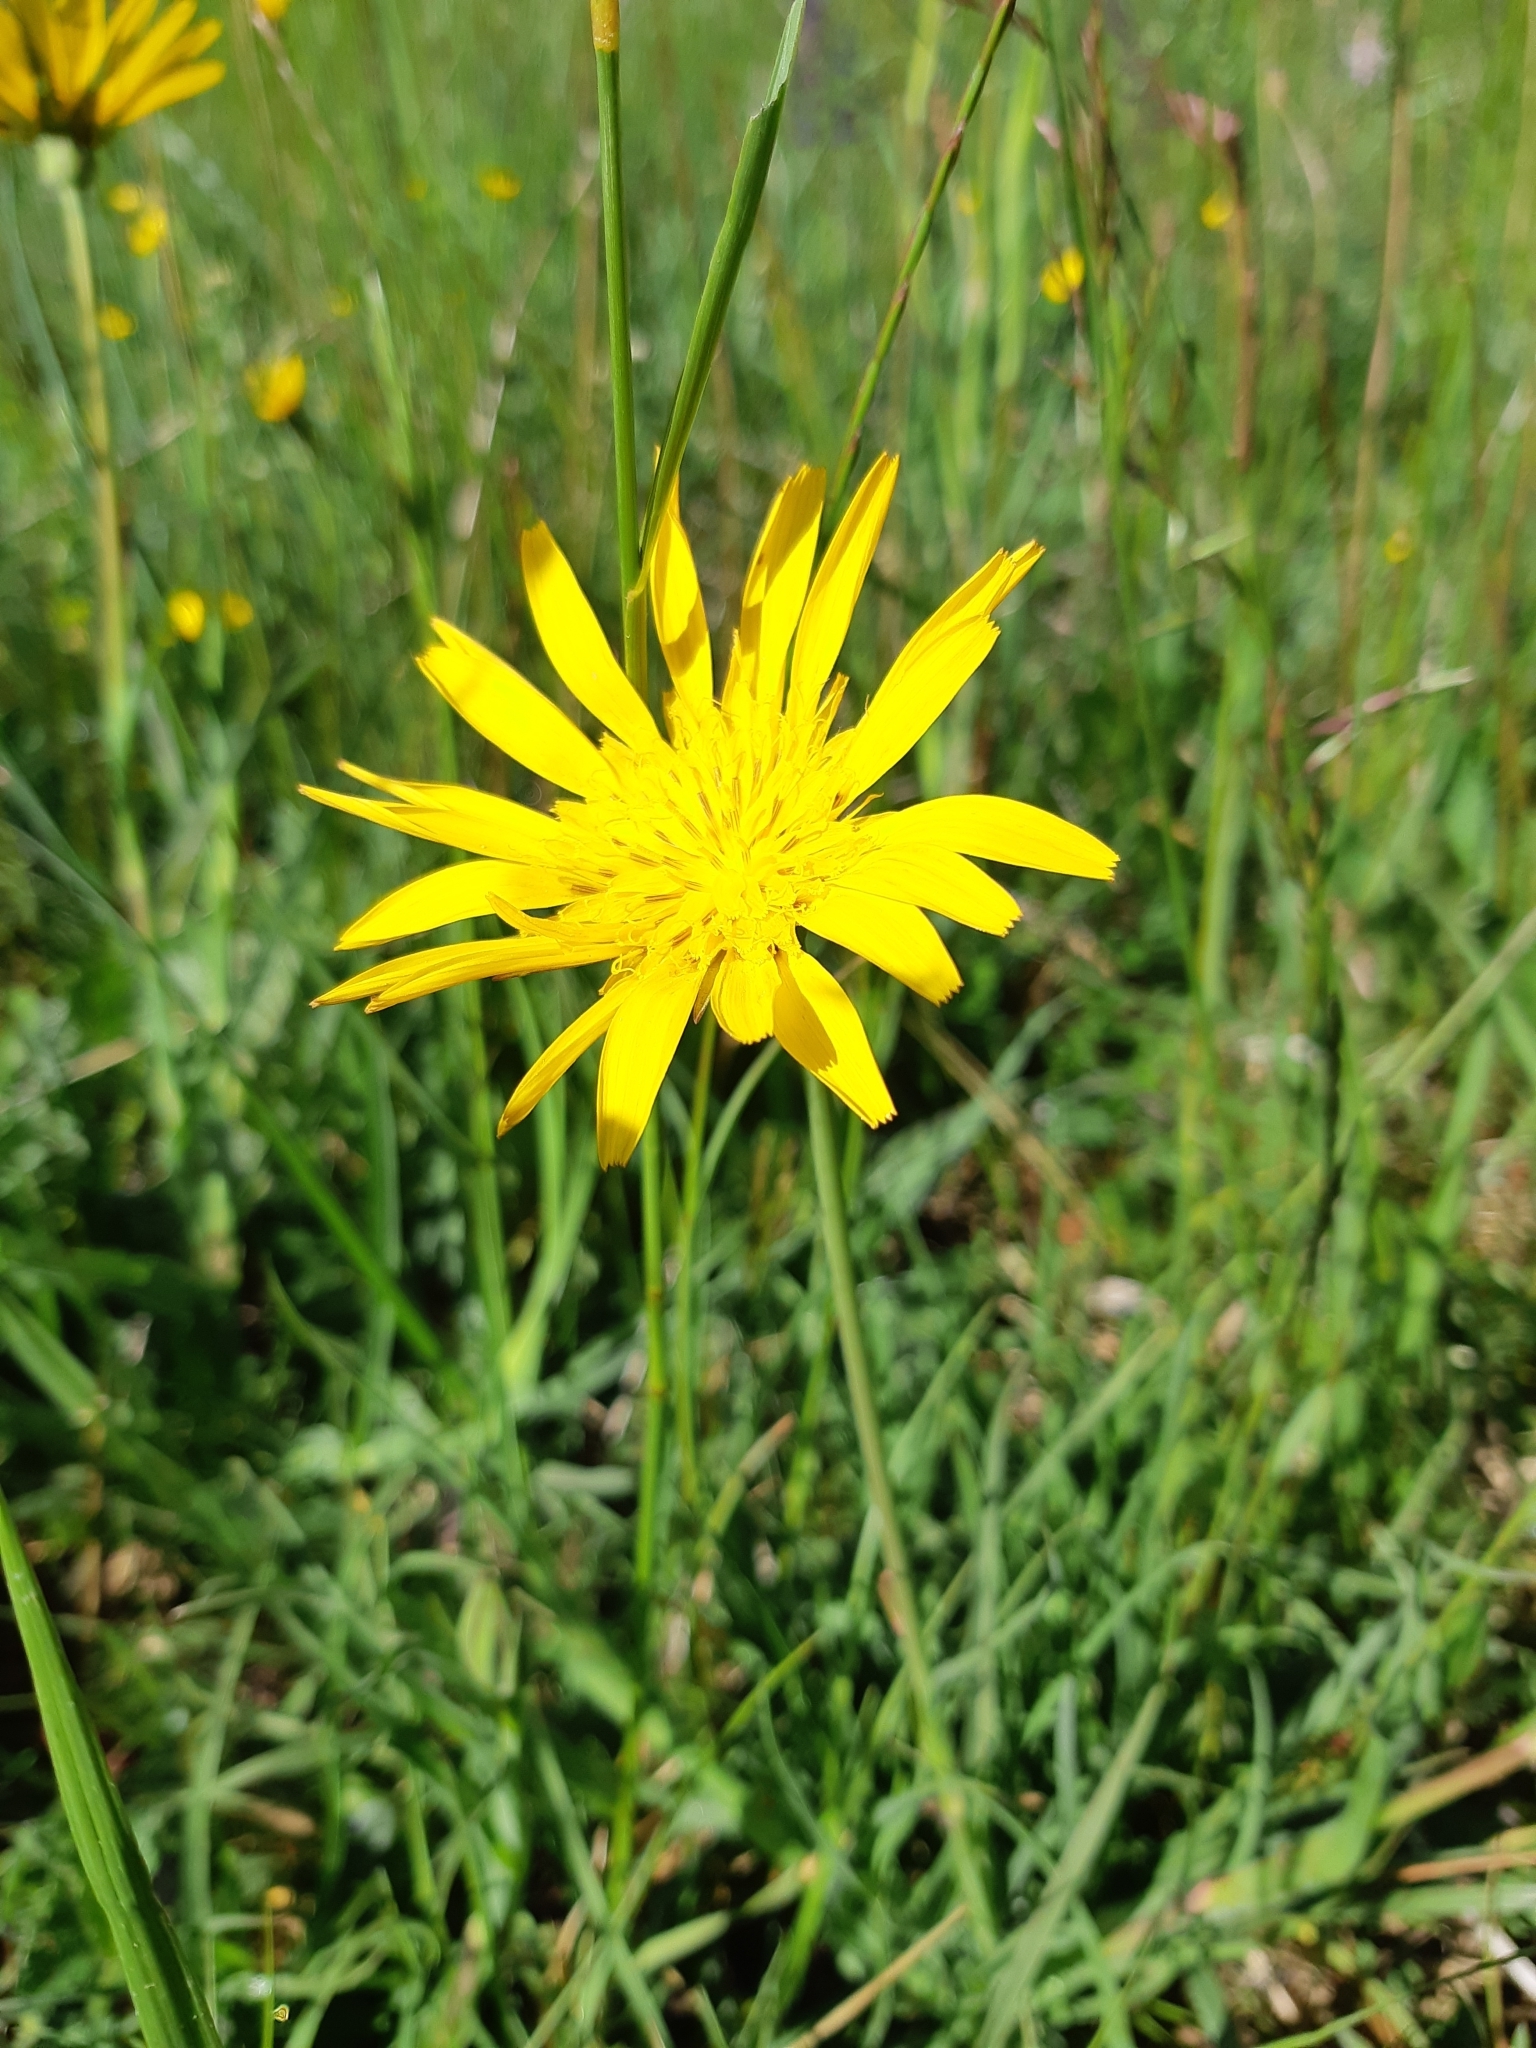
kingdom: Plantae
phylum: Tracheophyta
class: Magnoliopsida
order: Asterales
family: Asteraceae
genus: Tragopogon
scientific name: Tragopogon orientalis
